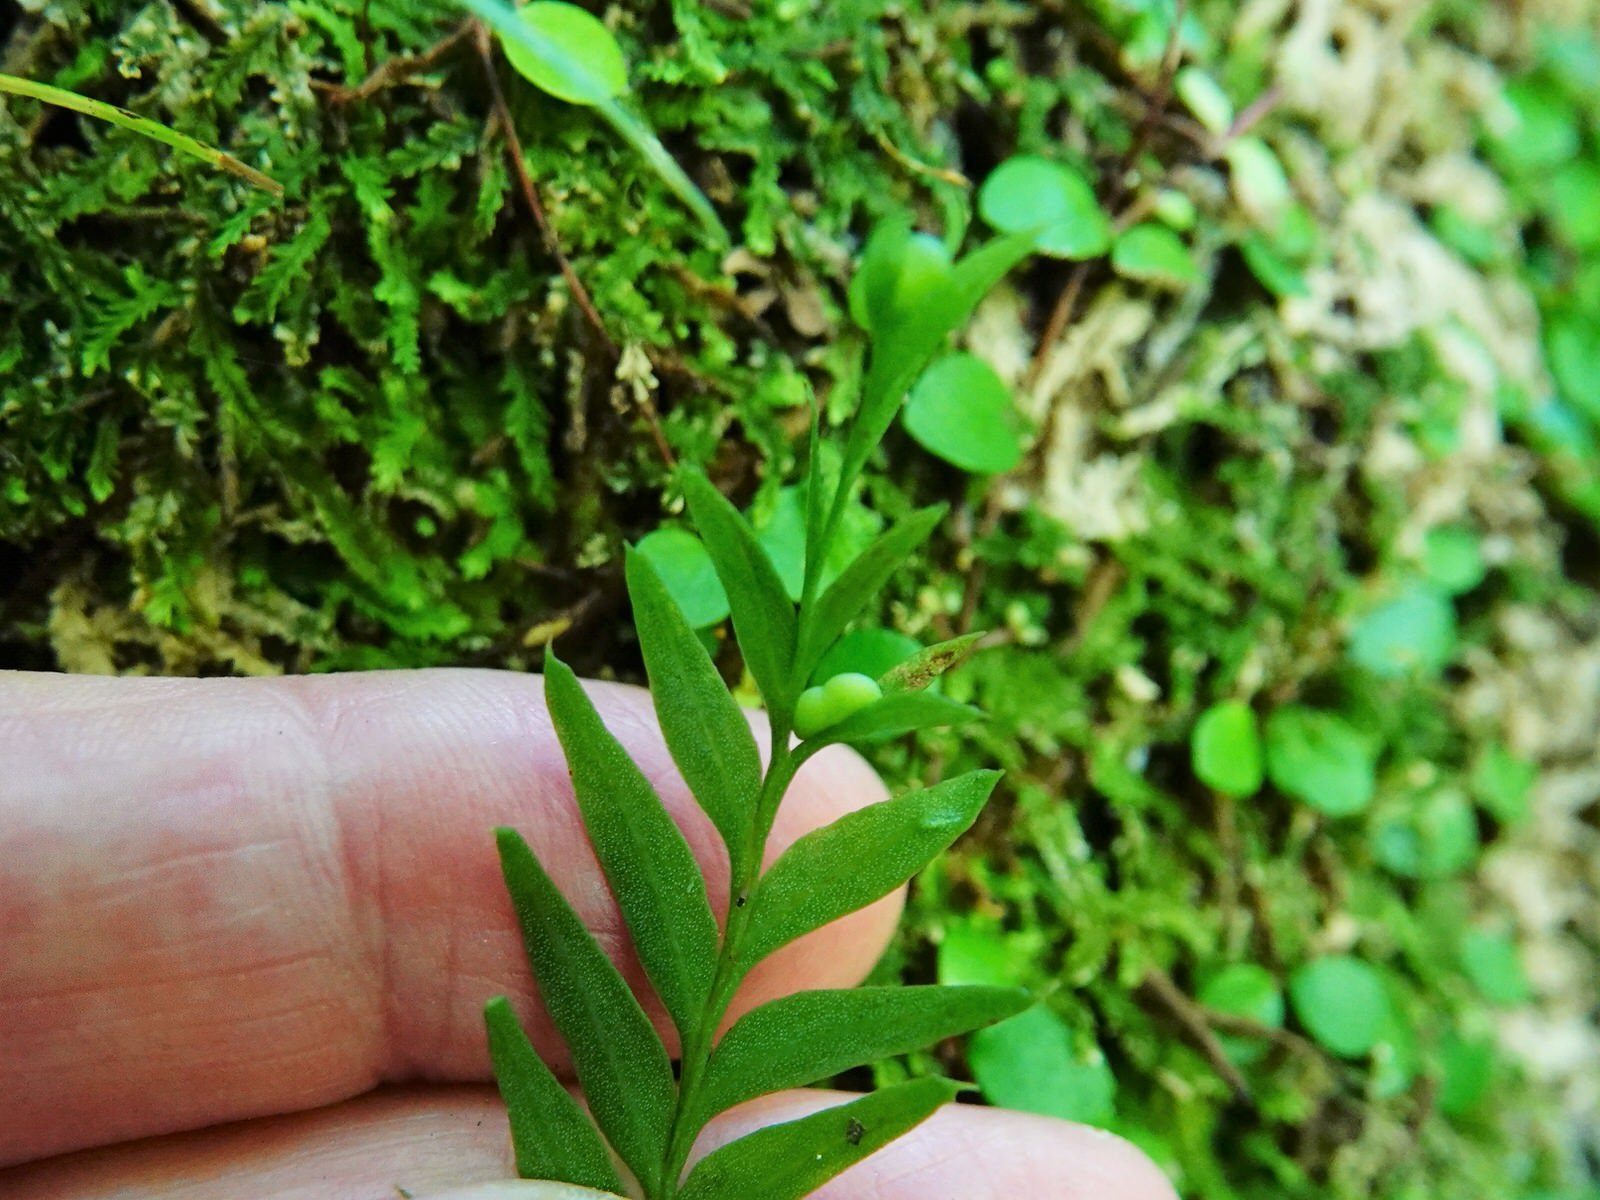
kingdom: Plantae
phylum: Tracheophyta
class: Polypodiopsida
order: Psilotales
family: Psilotaceae
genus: Tmesipteris
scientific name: Tmesipteris elongata
